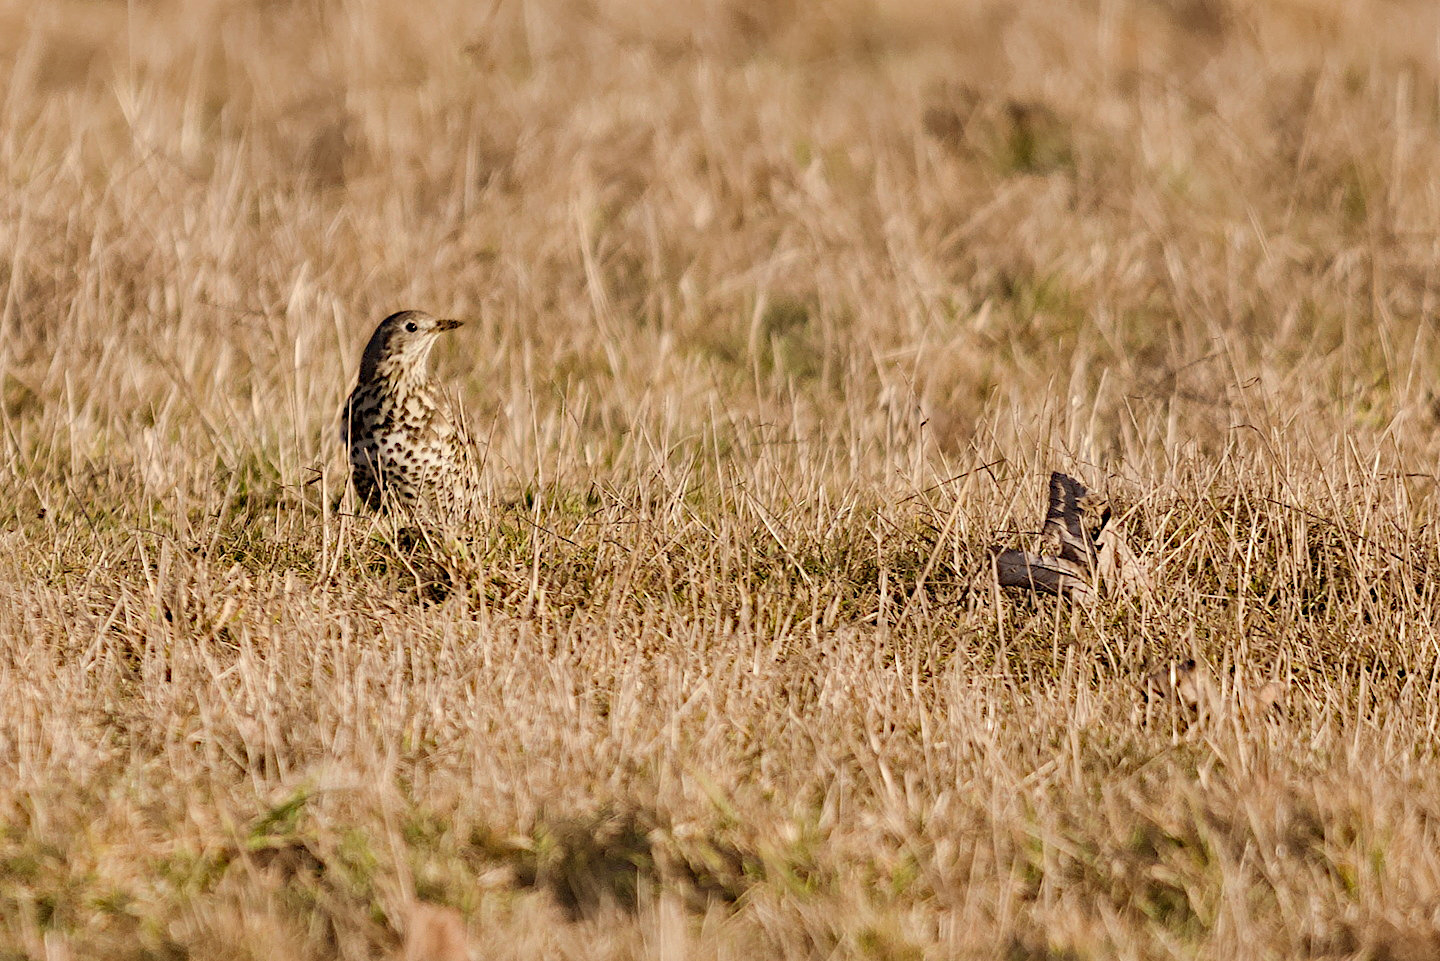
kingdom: Animalia
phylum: Chordata
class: Aves
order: Passeriformes
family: Turdidae
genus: Turdus
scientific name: Turdus viscivorus
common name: Mistle thrush
